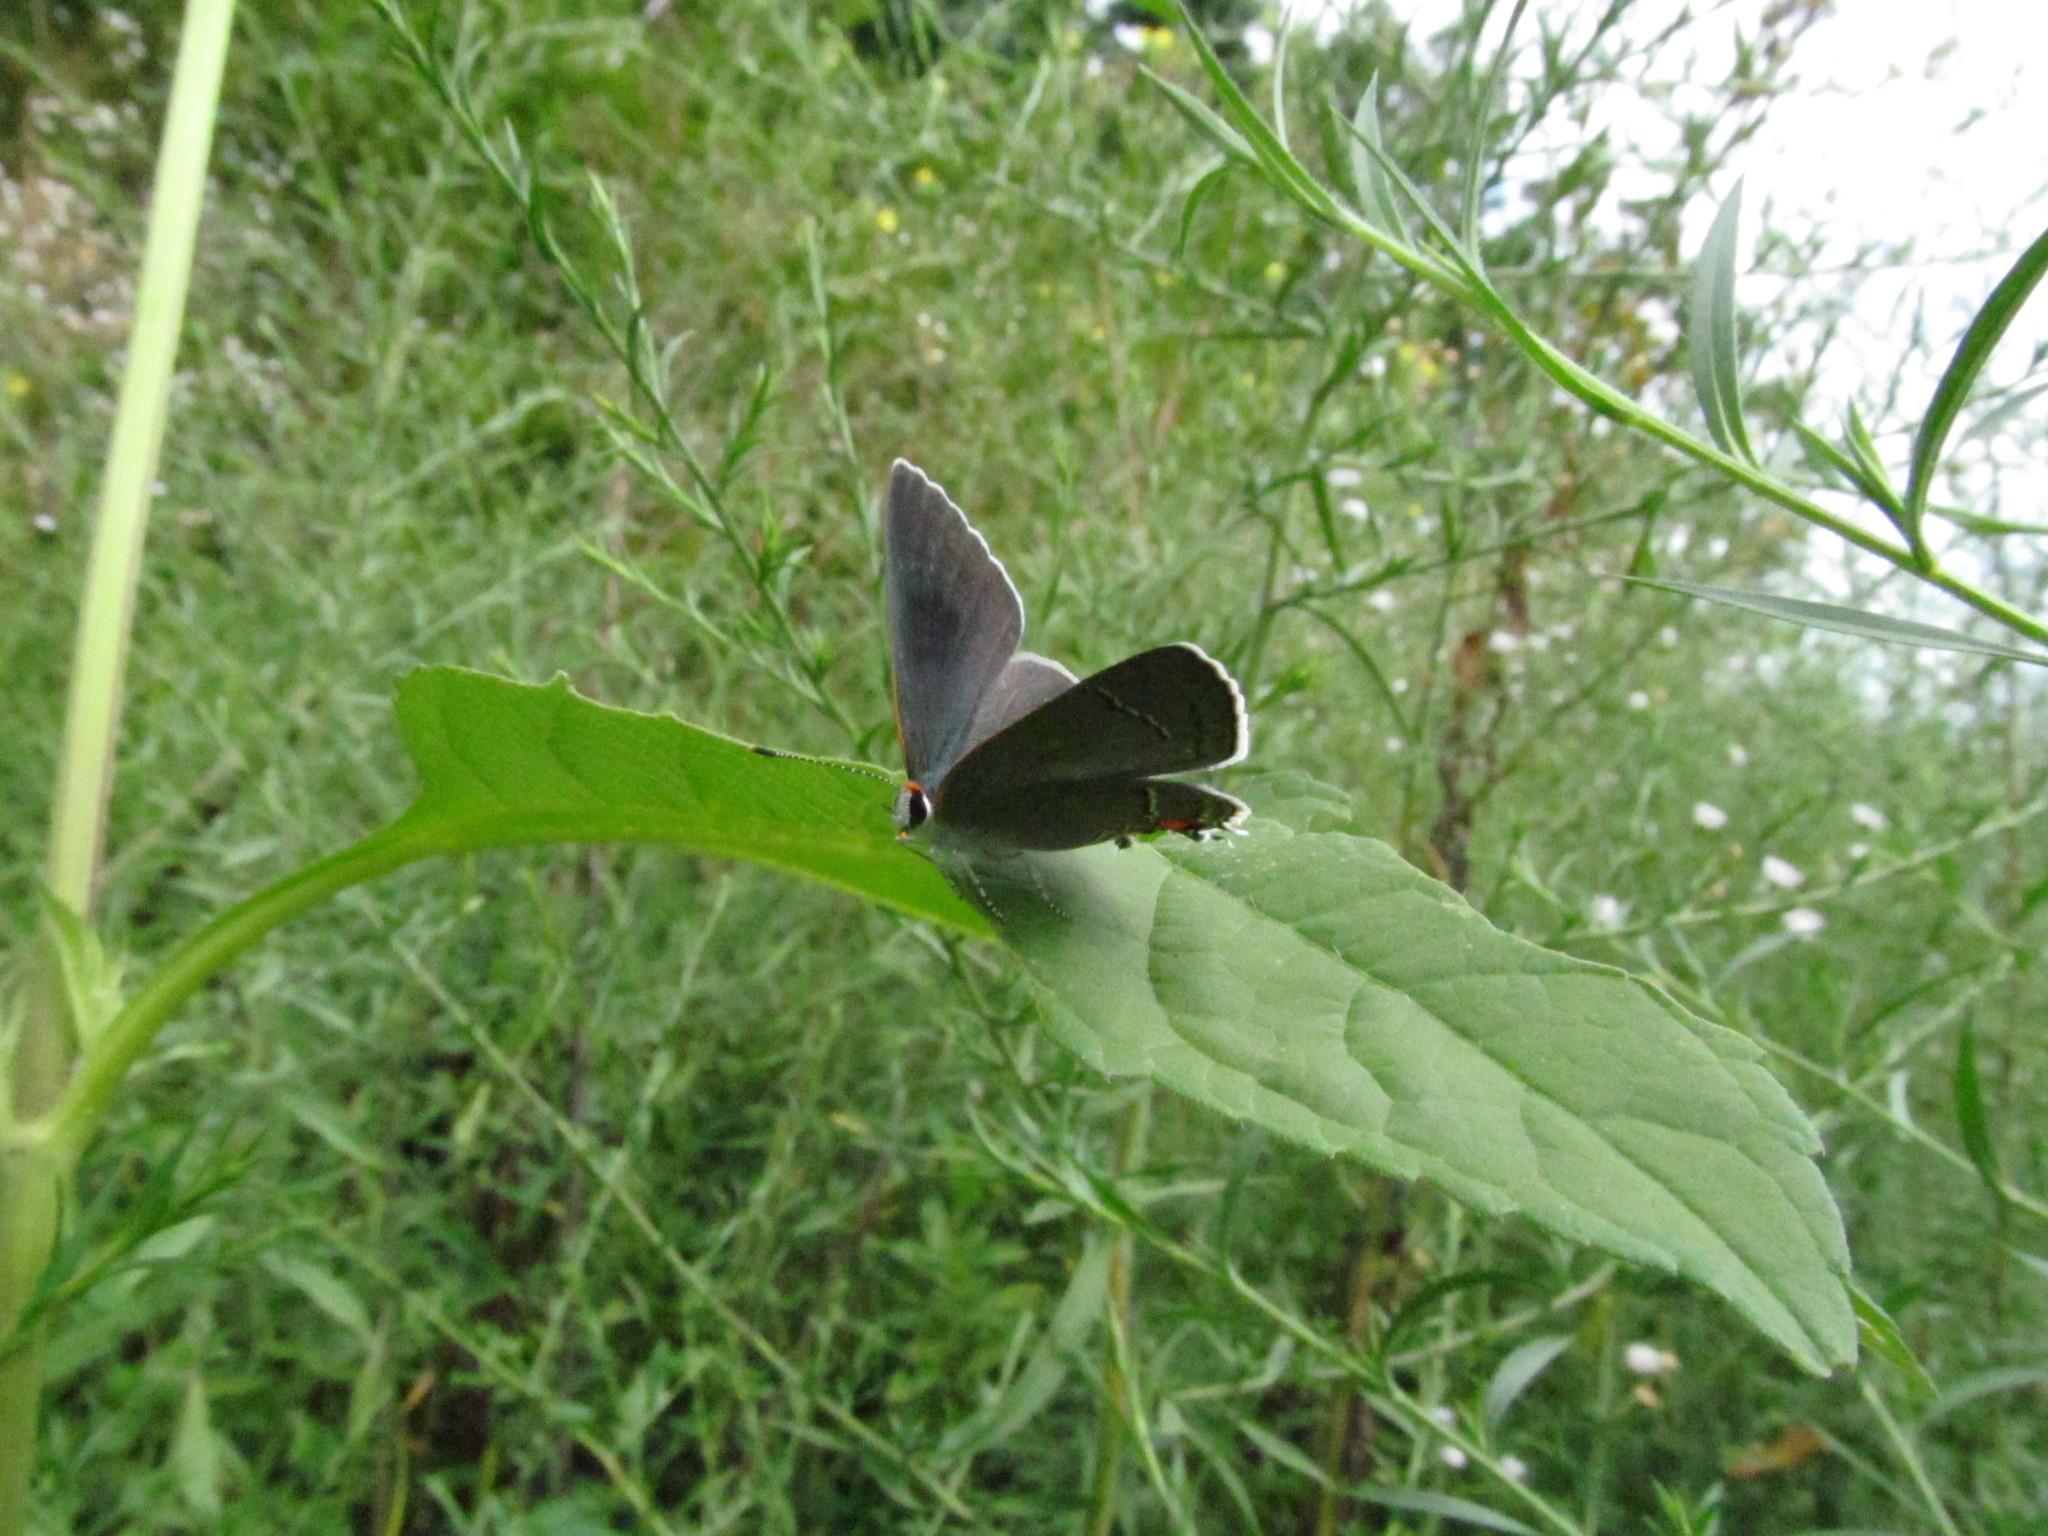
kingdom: Animalia
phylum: Arthropoda
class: Insecta
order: Lepidoptera
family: Lycaenidae
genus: Strymon
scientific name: Strymon melinus
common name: Gray hairstreak
